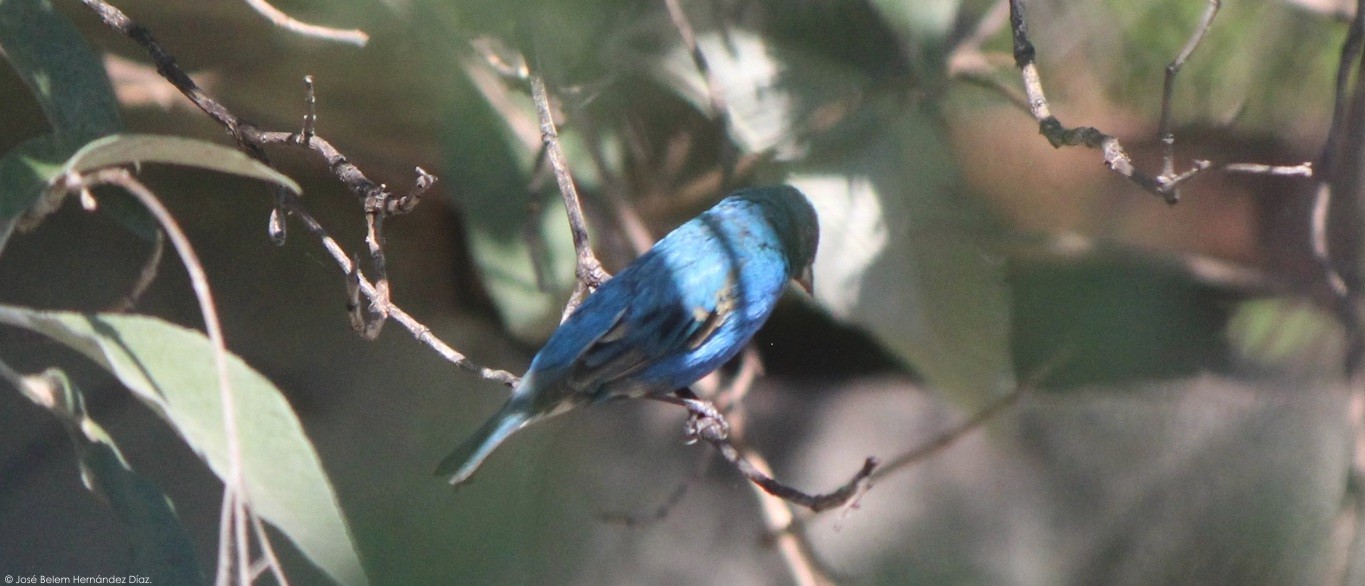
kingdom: Animalia
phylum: Chordata
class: Aves
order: Passeriformes
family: Cardinalidae
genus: Passerina
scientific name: Passerina cyanea
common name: Indigo bunting
